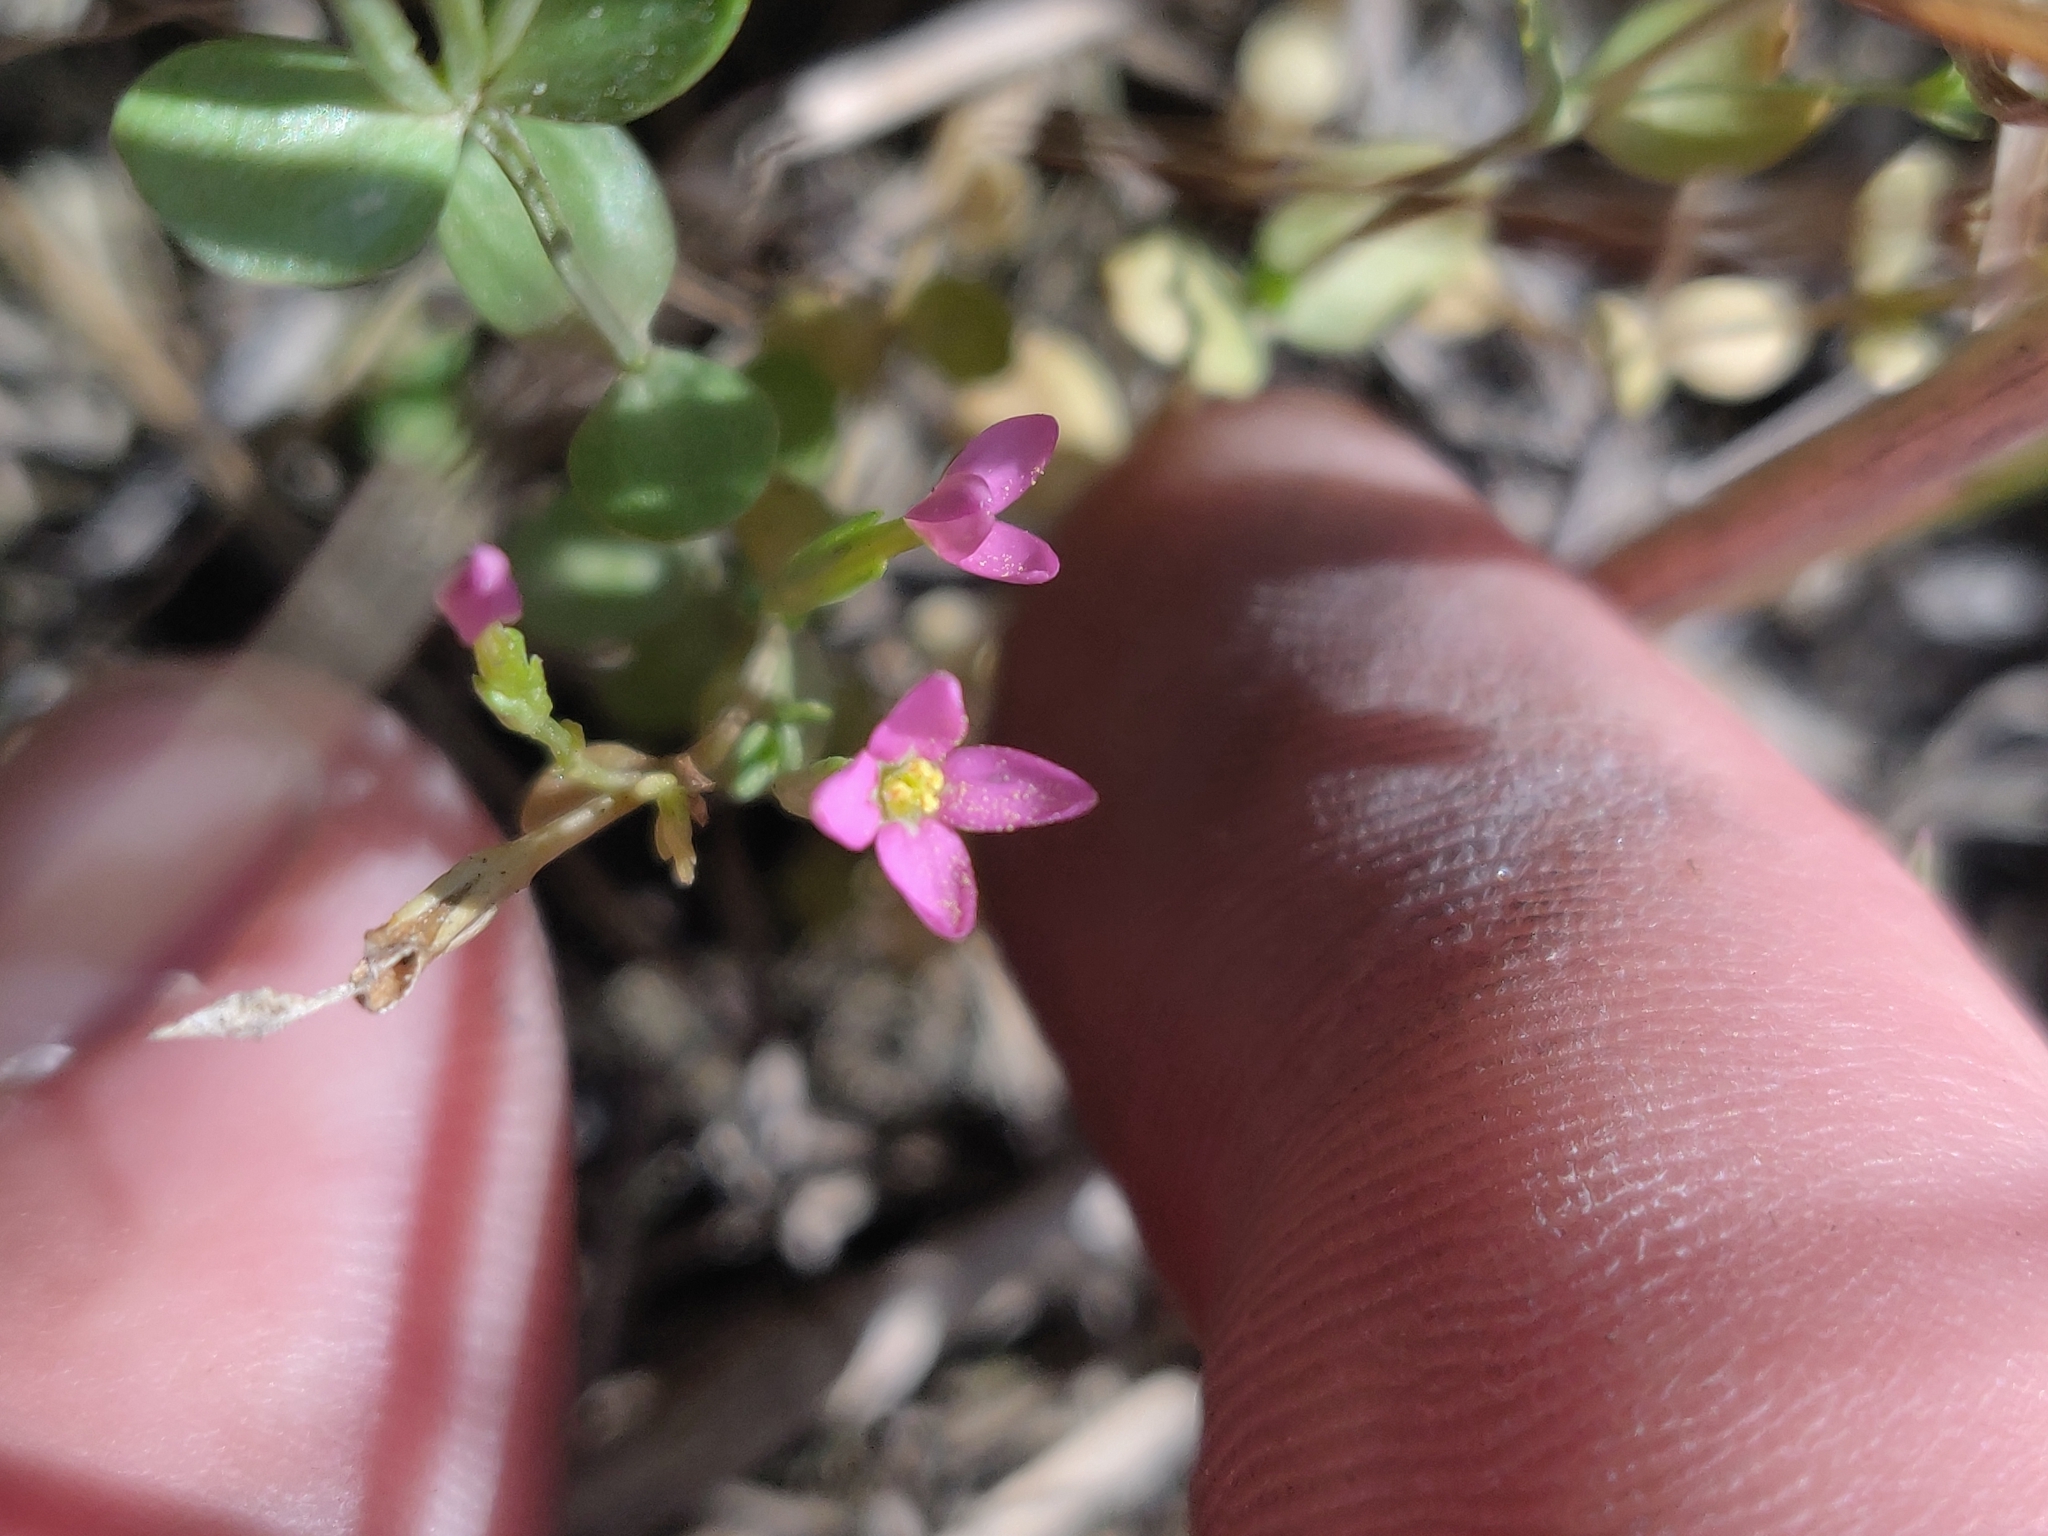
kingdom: Plantae
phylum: Tracheophyta
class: Magnoliopsida
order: Gentianales
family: Gentianaceae
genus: Centaurium
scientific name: Centaurium pulchellum
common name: Lesser centaury
